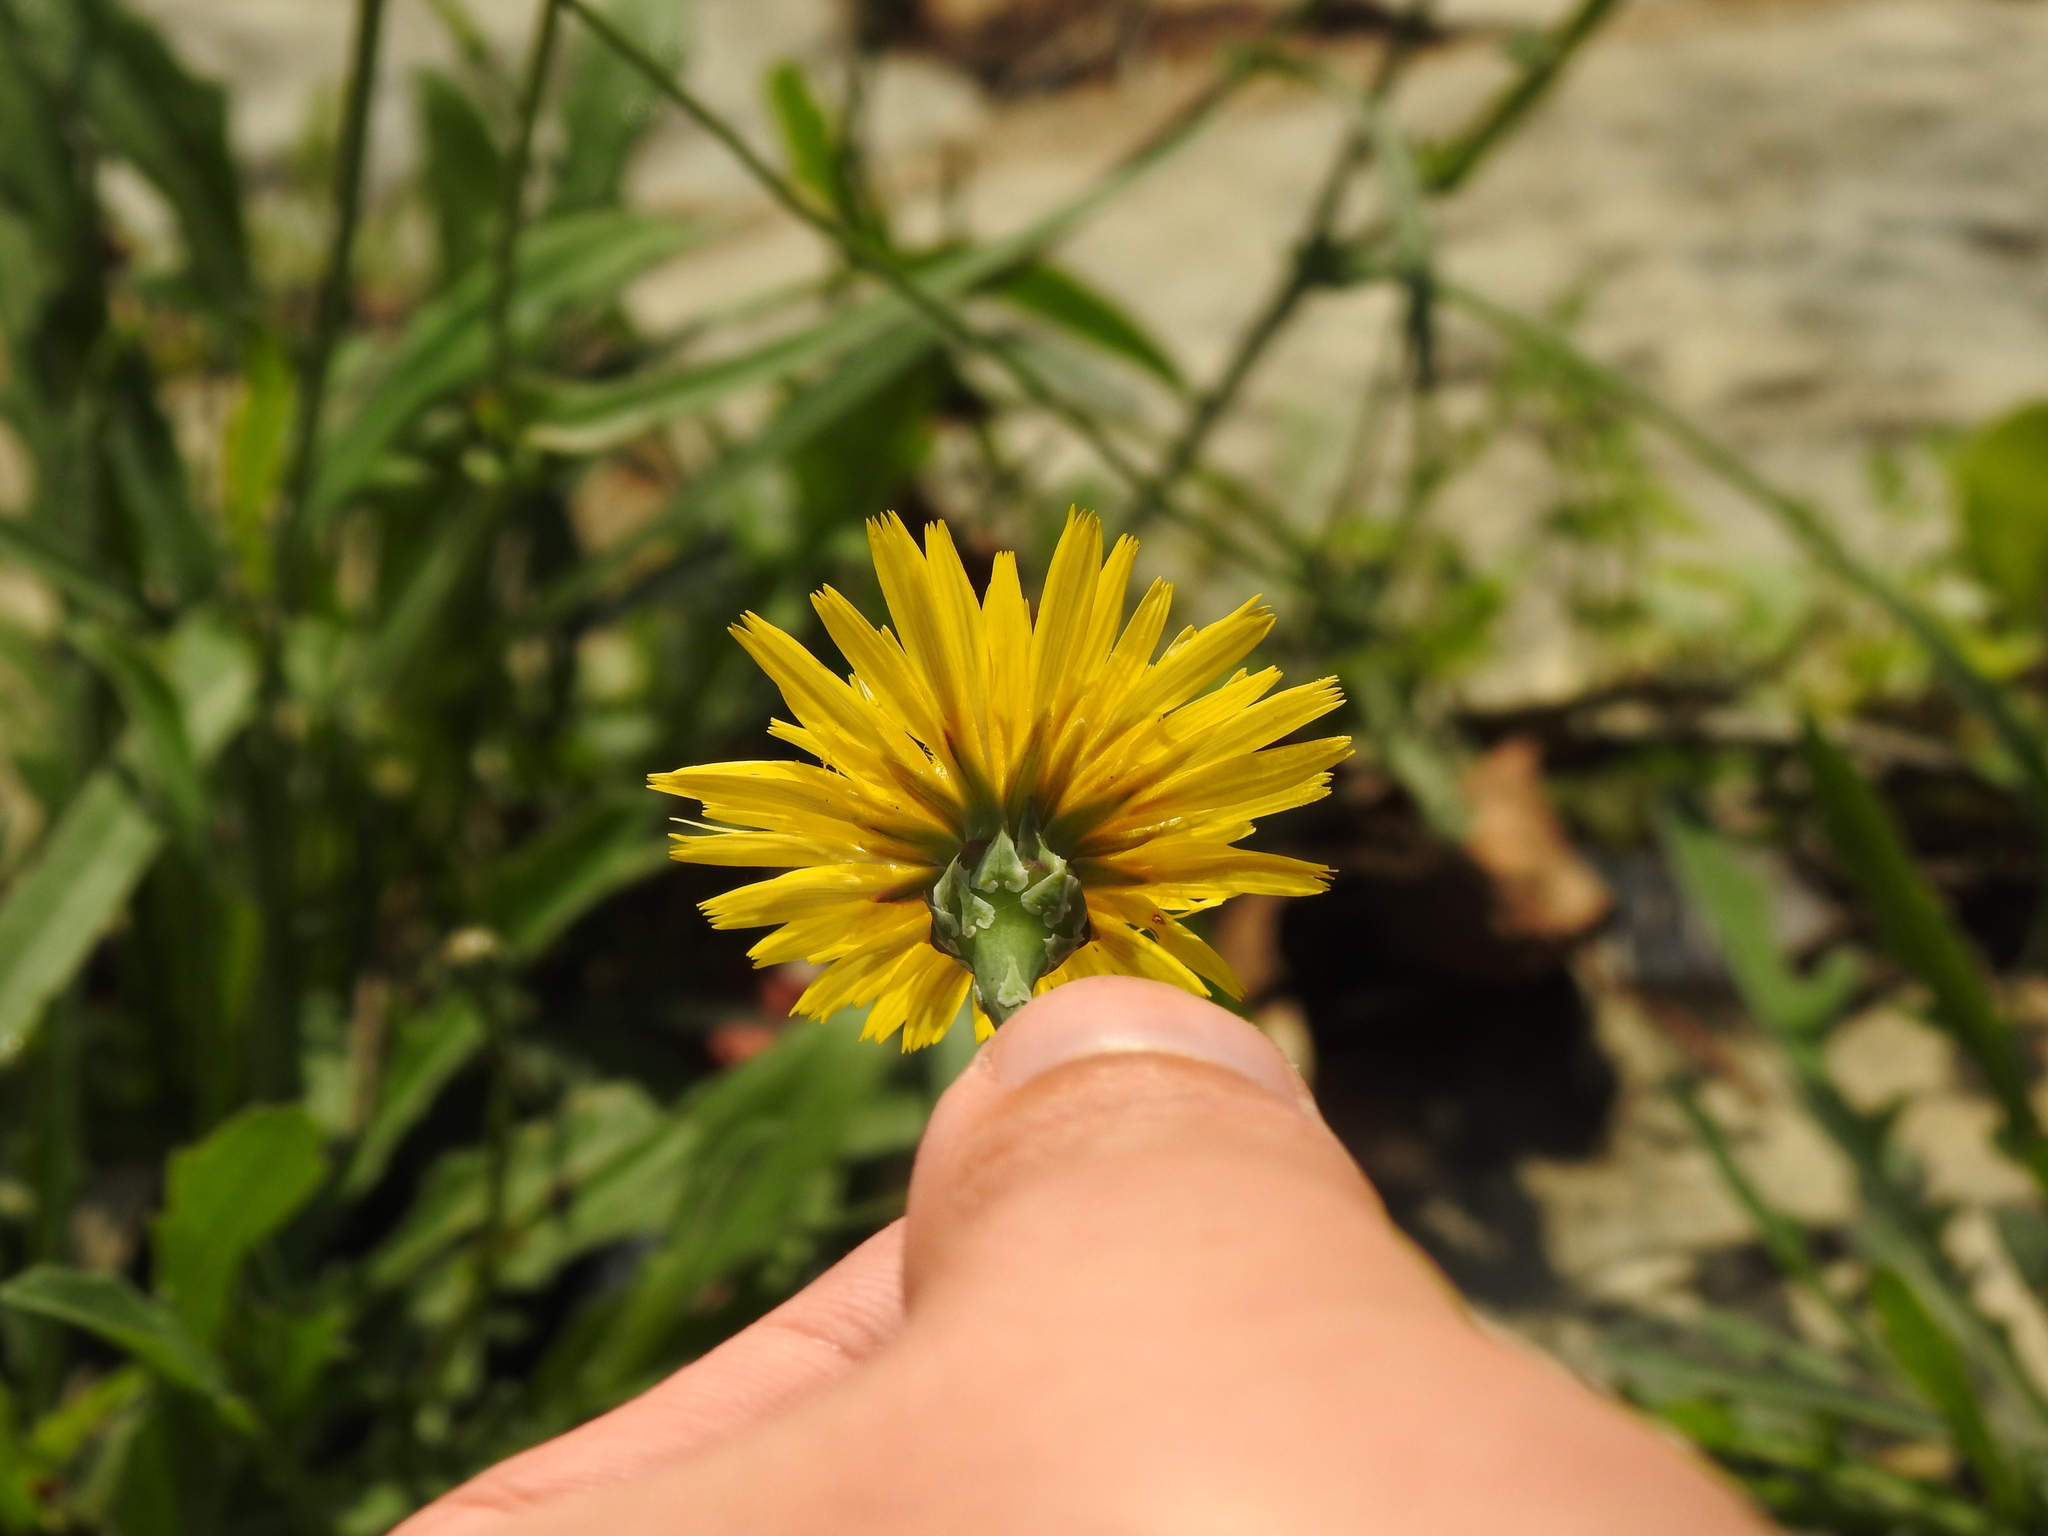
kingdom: Plantae
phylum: Tracheophyta
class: Magnoliopsida
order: Asterales
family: Asteraceae
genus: Reichardia
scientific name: Reichardia picroides
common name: Common brighteyes
